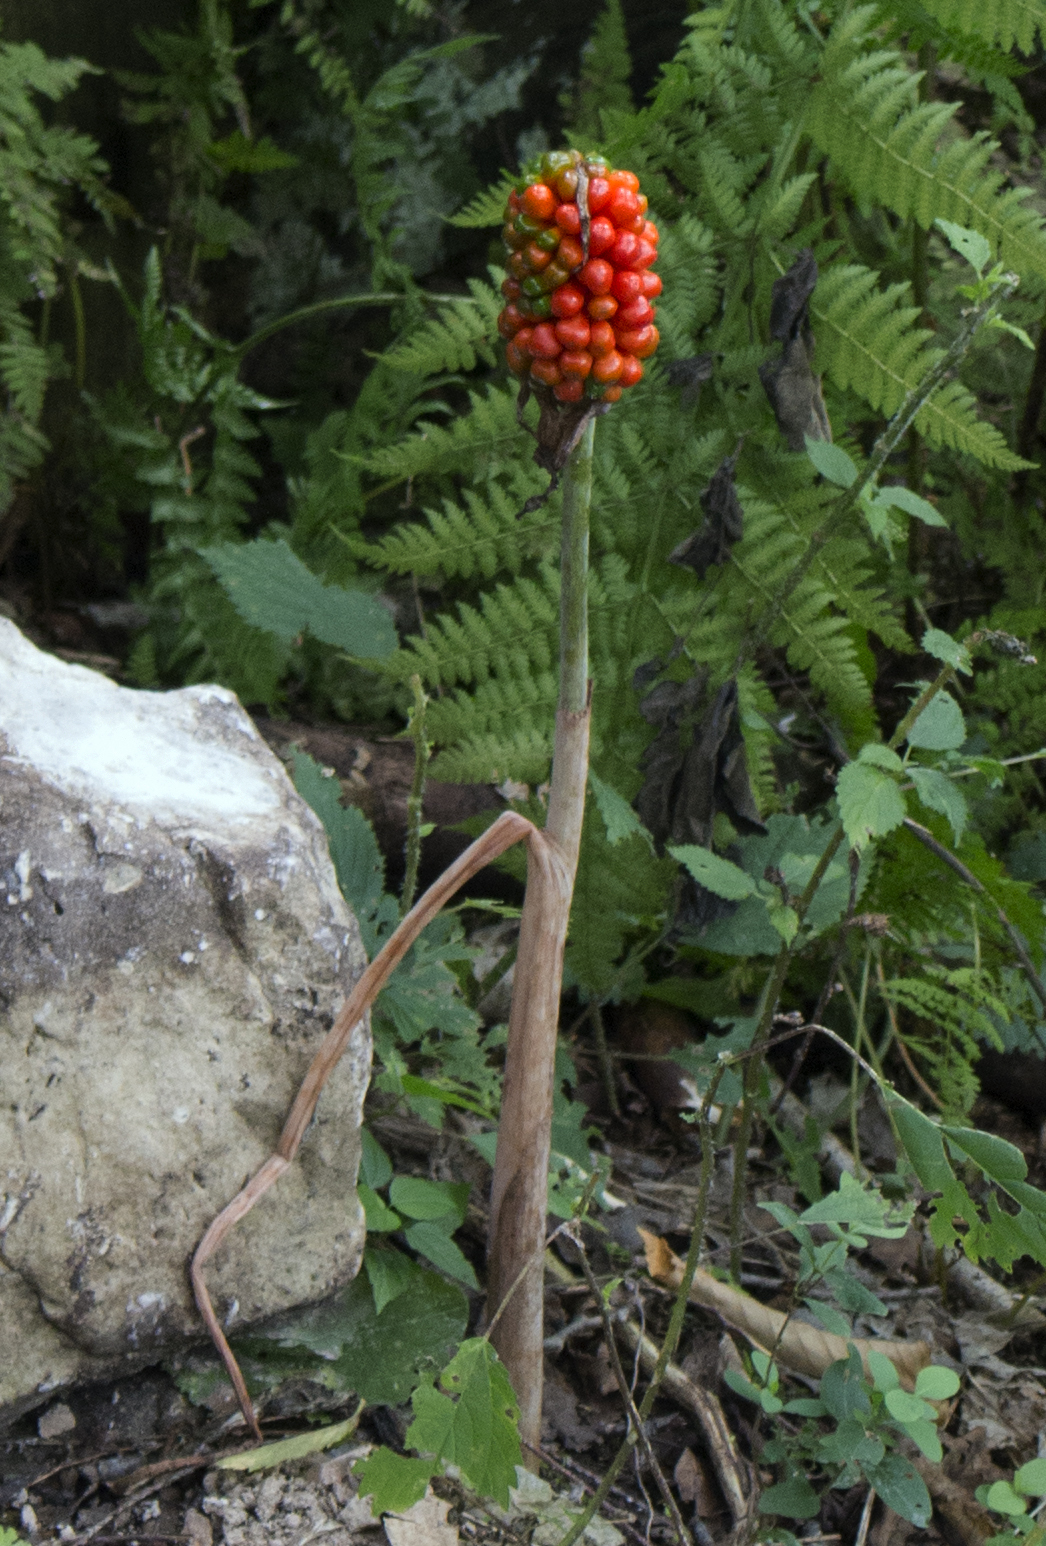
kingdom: Plantae
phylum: Tracheophyta
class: Liliopsida
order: Alismatales
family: Araceae
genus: Arisaema
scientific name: Arisaema triphyllum
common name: Jack-in-the-pulpit
